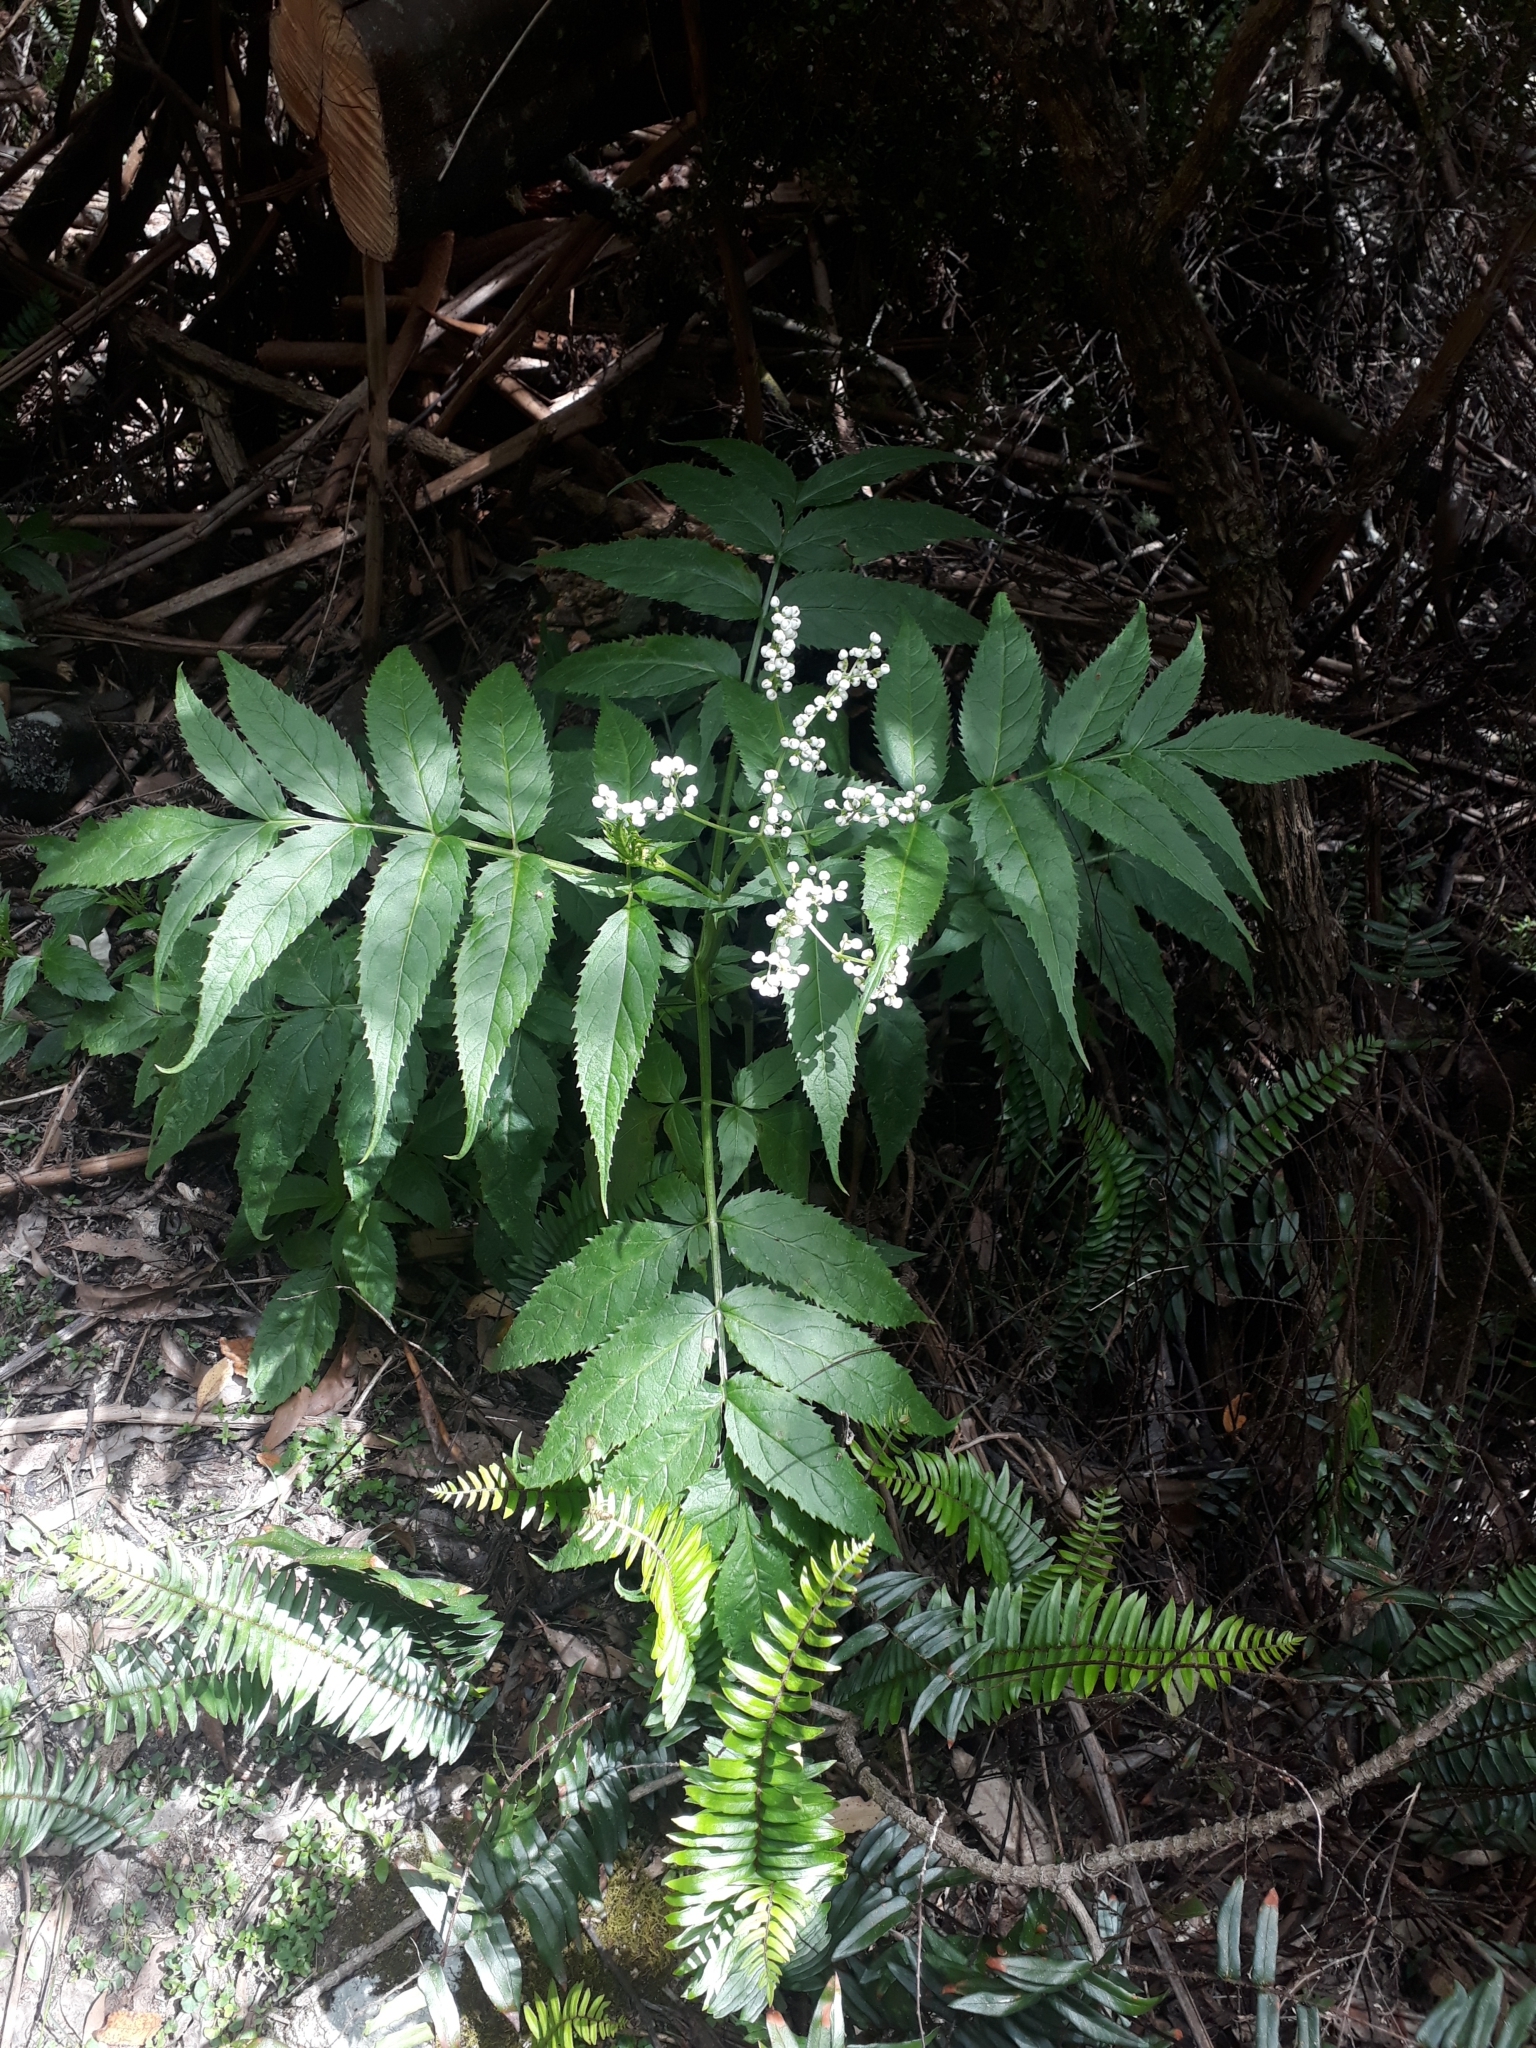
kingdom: Plantae
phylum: Tracheophyta
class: Magnoliopsida
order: Dipsacales
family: Viburnaceae
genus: Sambucus
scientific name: Sambucus gaudichaudiana
